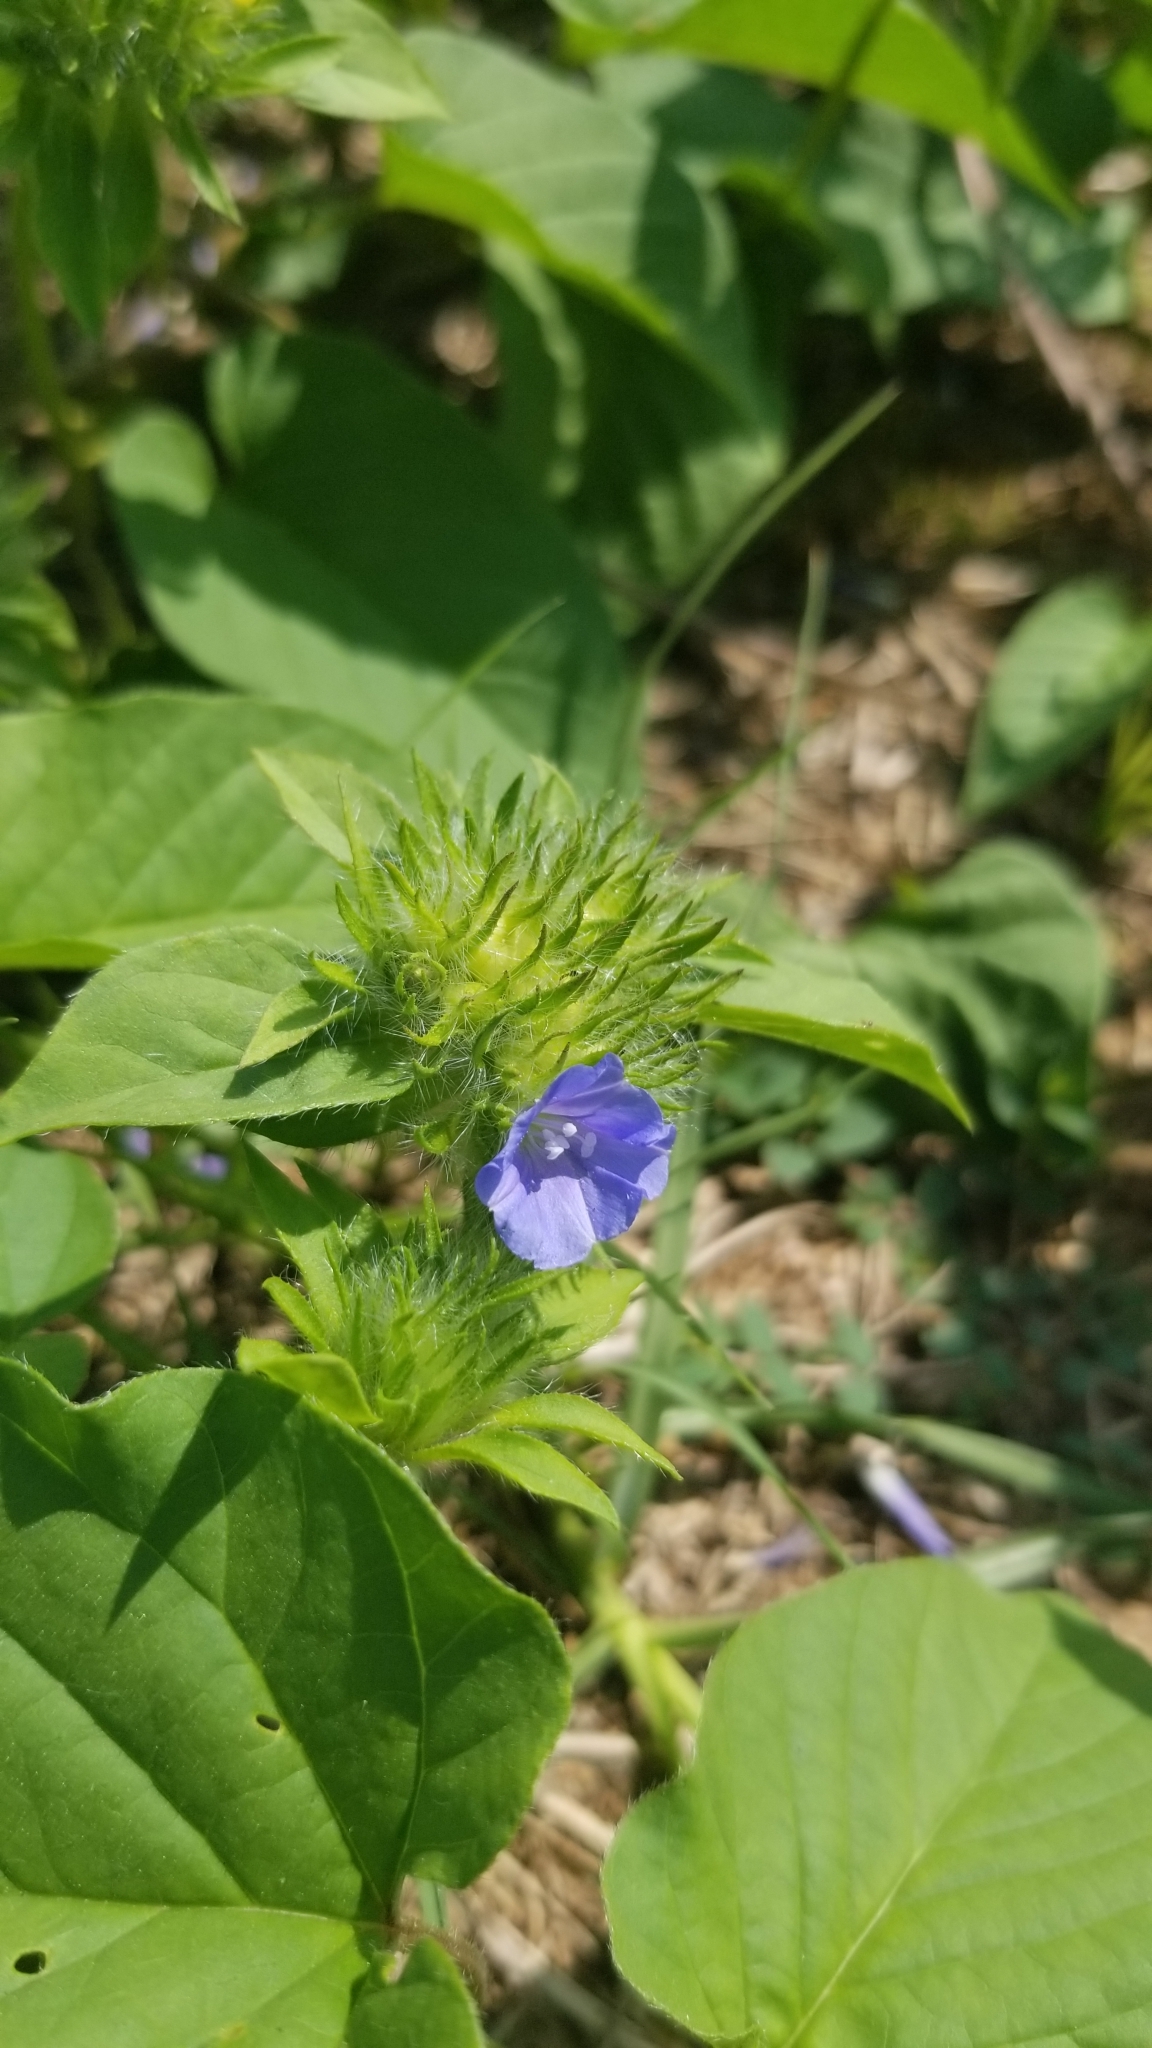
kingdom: Plantae
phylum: Tracheophyta
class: Magnoliopsida
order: Solanales
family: Convolvulaceae
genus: Jacquemontia
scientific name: Jacquemontia tamnifolia
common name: Hairy clustervine
